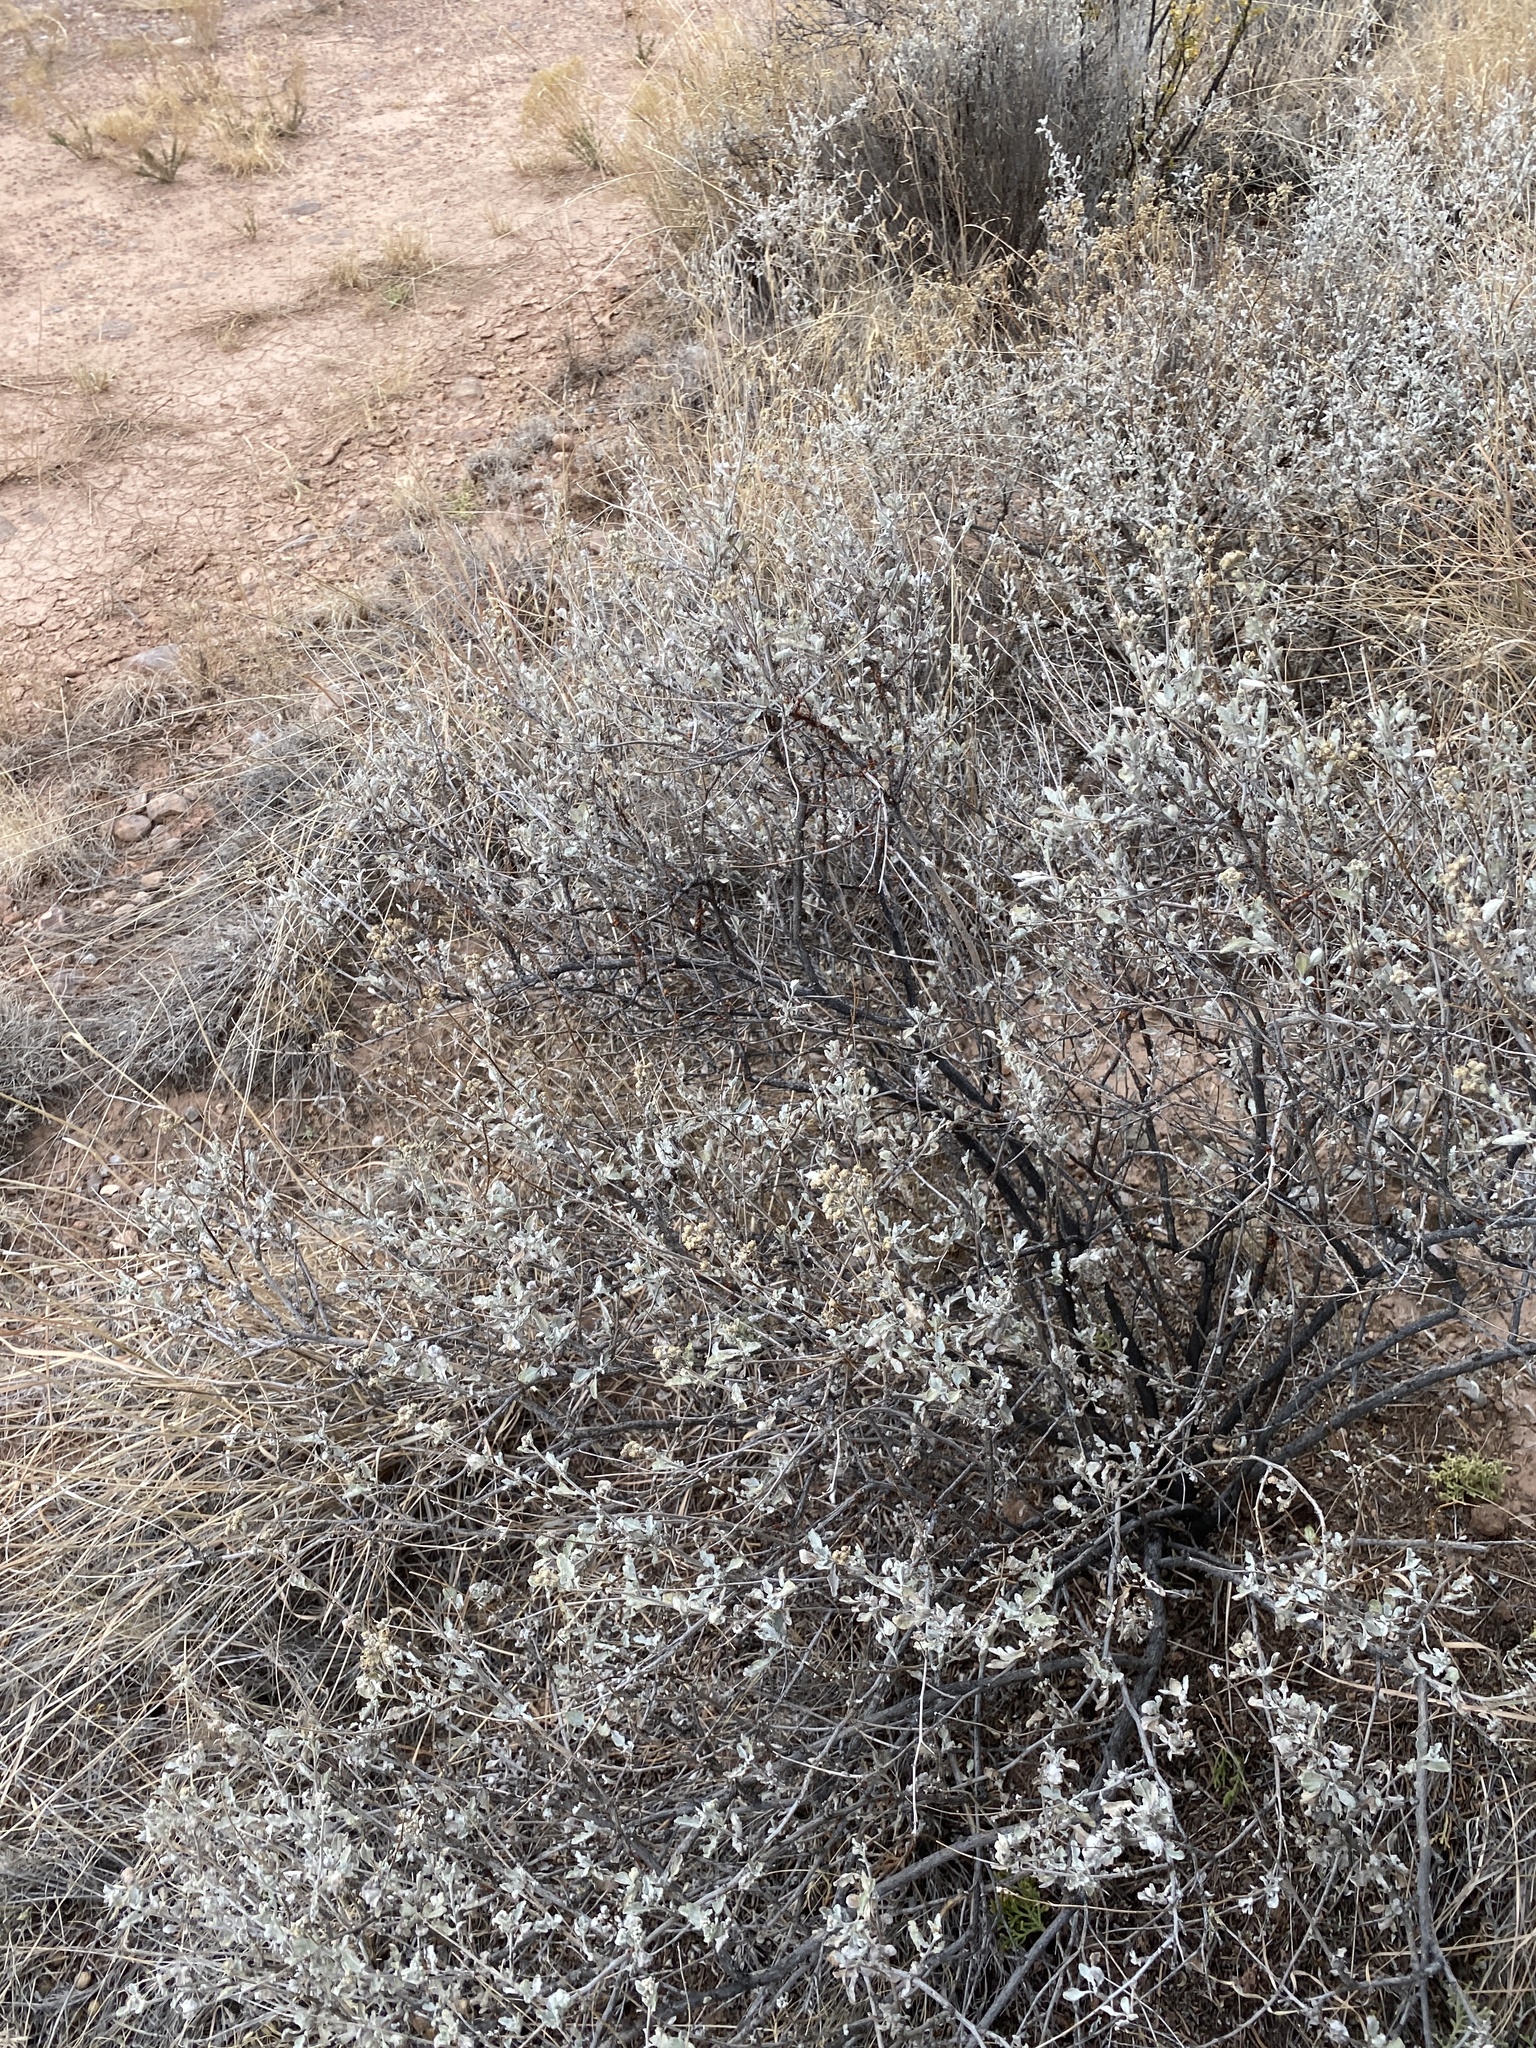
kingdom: Plantae
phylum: Tracheophyta
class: Magnoliopsida
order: Asterales
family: Asteraceae
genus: Parthenium
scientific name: Parthenium incanum
